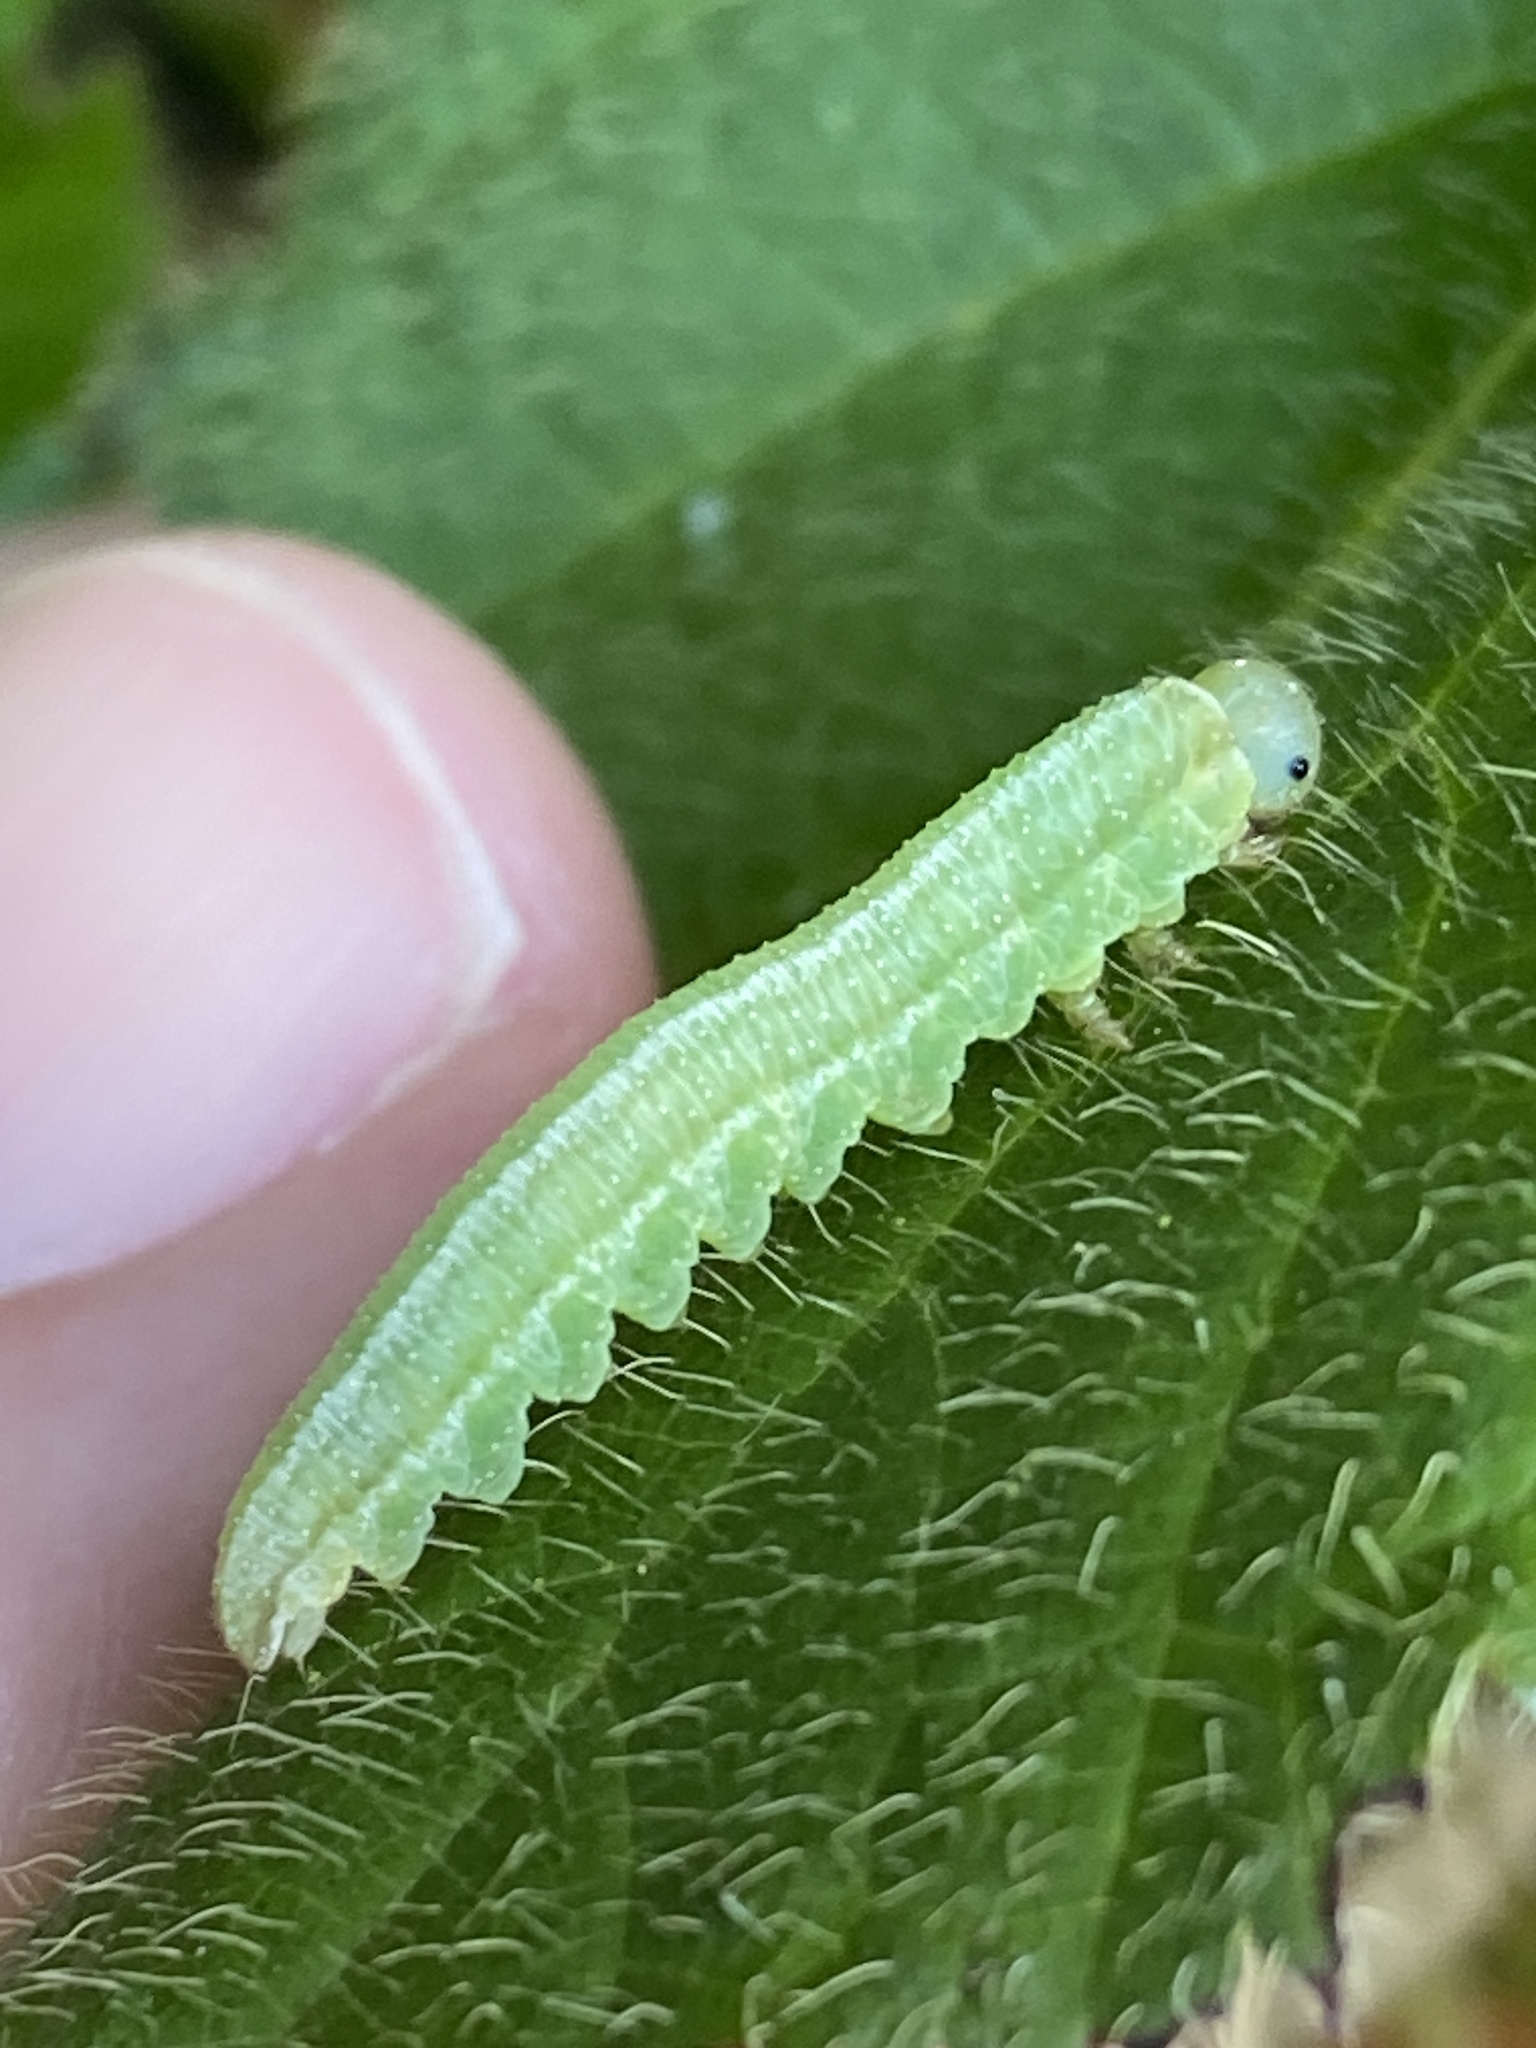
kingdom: Animalia
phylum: Arthropoda
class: Insecta
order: Hymenoptera
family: Tenthredinidae
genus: Tenthredopsis
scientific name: Tenthredopsis friesei
